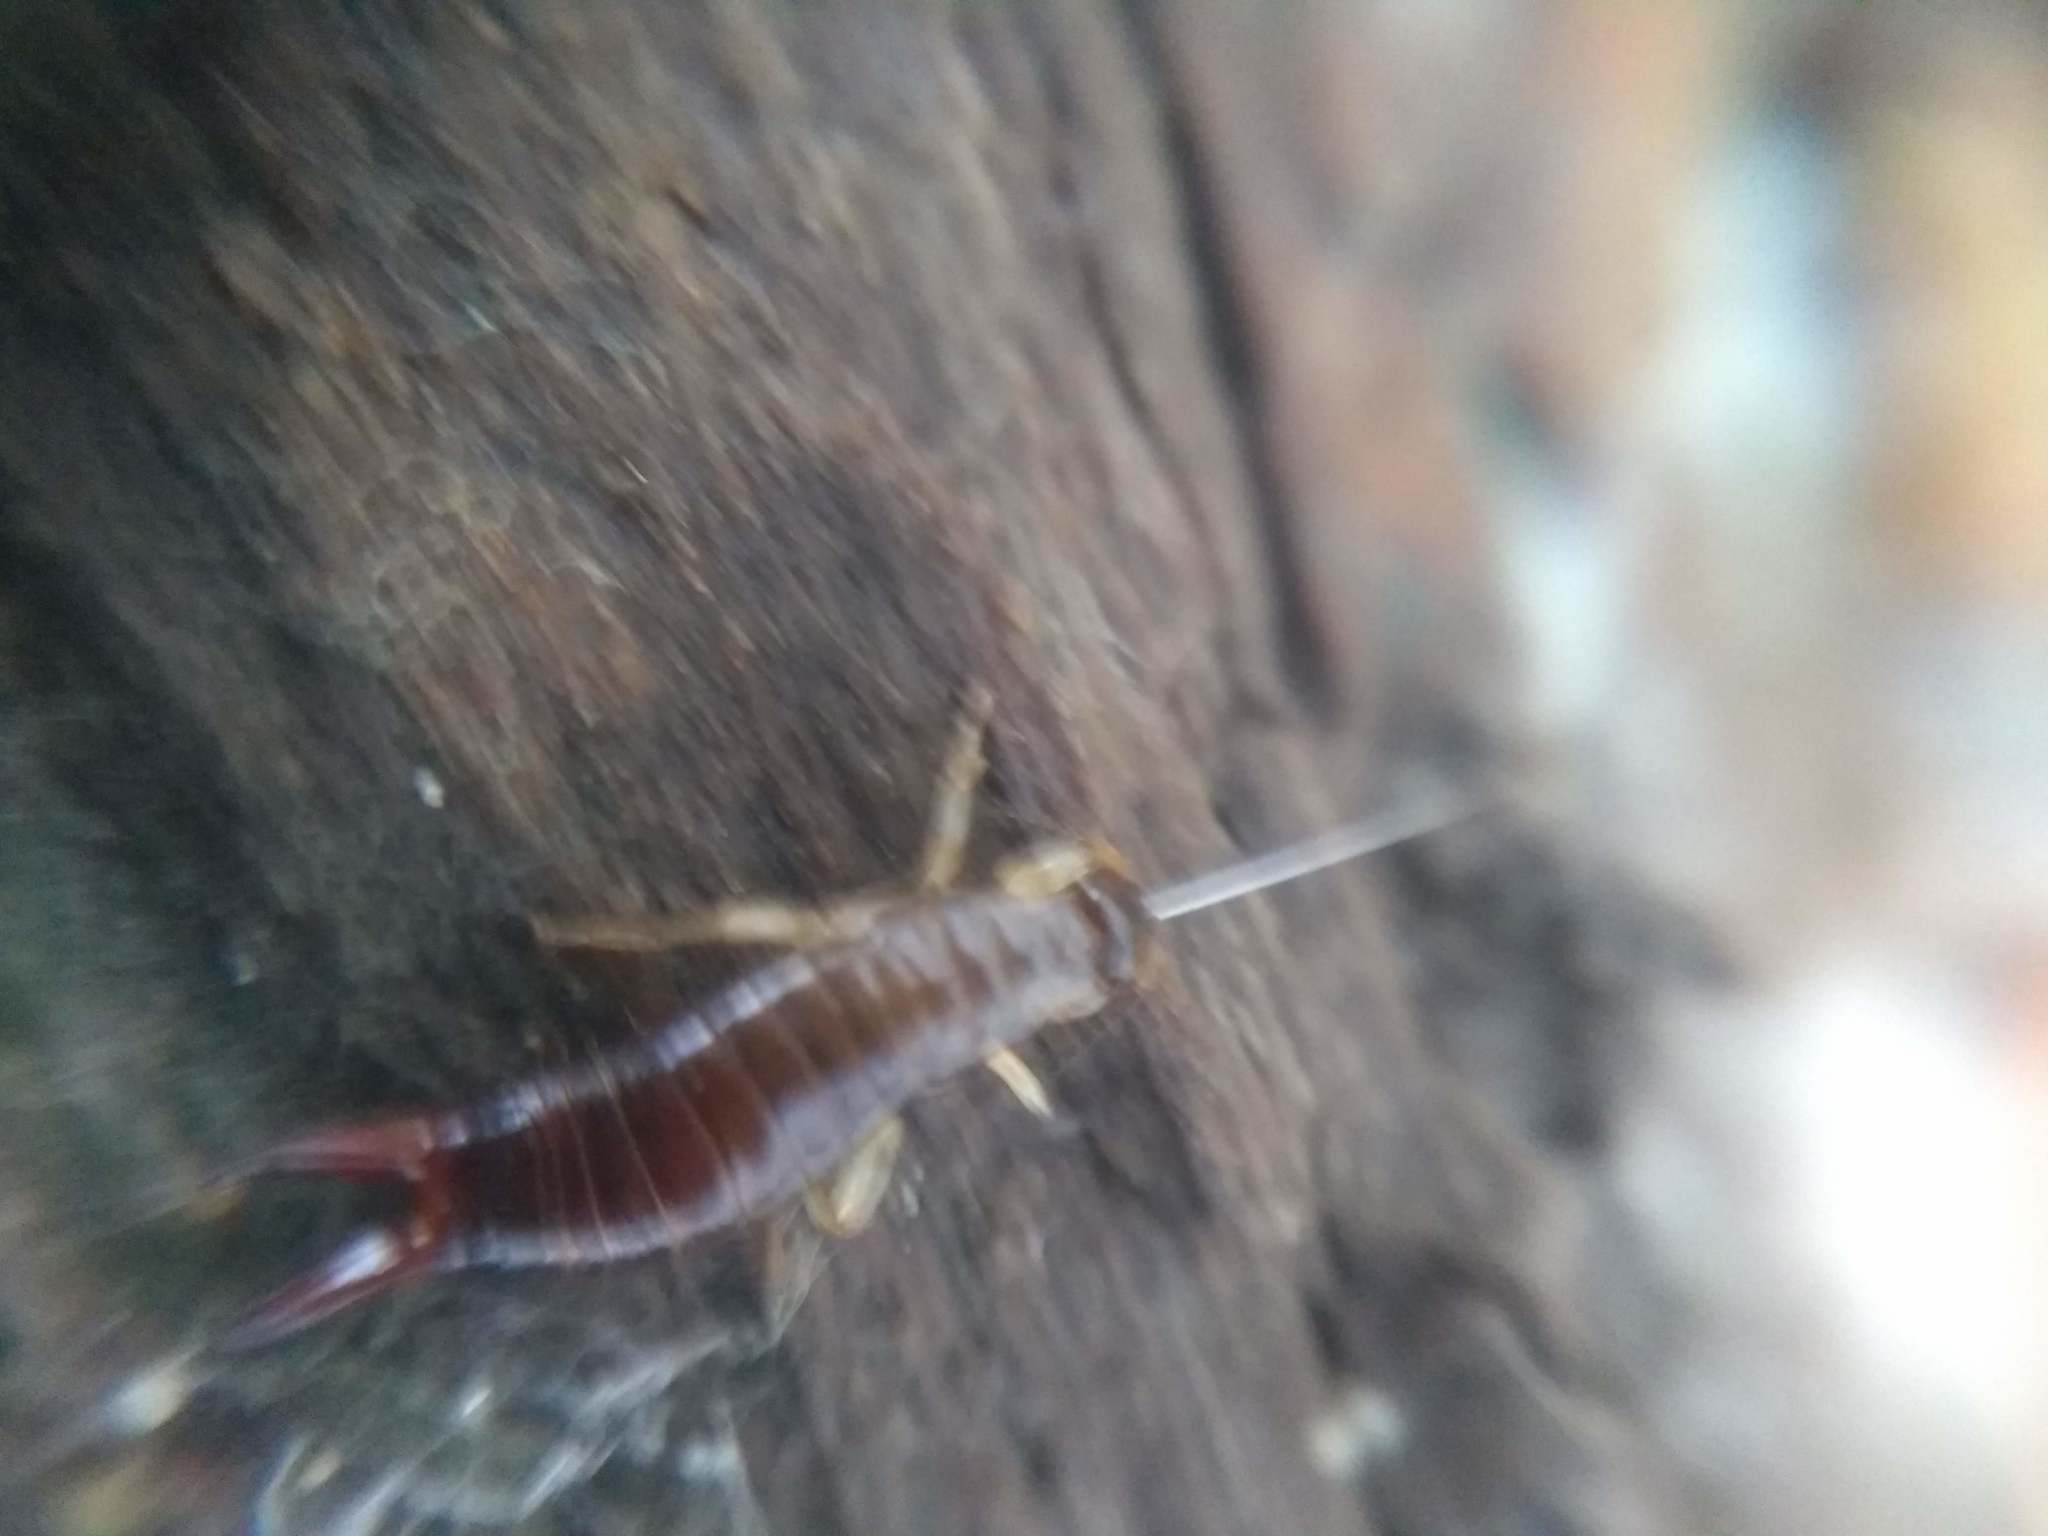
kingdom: Animalia
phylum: Arthropoda
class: Insecta
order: Dermaptera
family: Anisolabididae
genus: Euborellia
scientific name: Euborellia annulipes
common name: Ringlegged earwig
